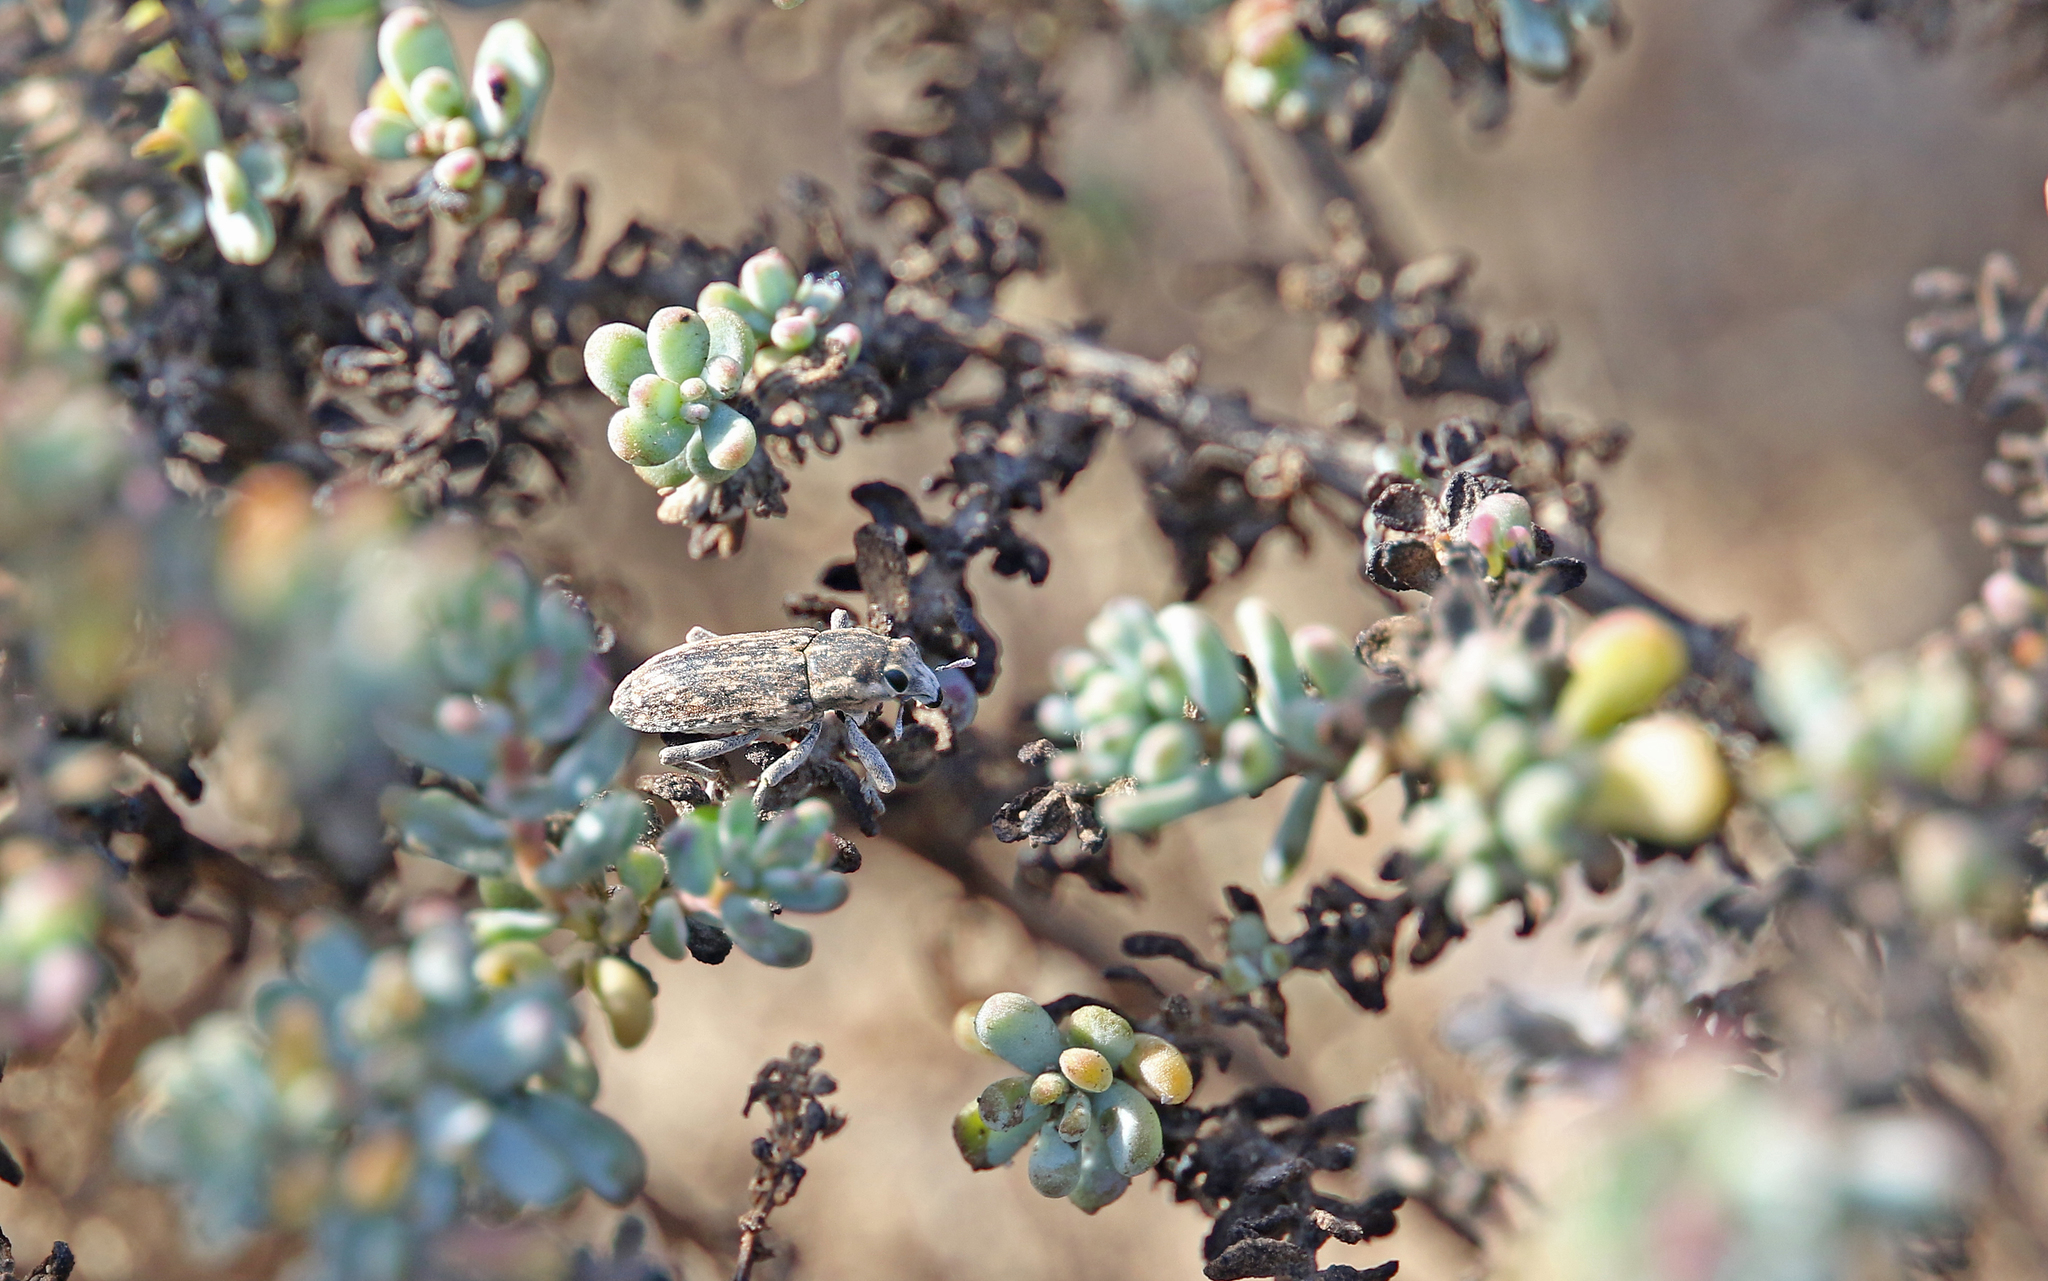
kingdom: Animalia
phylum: Arthropoda
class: Insecta
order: Coleoptera
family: Curculionidae
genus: Temnorhinus
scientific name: Temnorhinus mixtus
